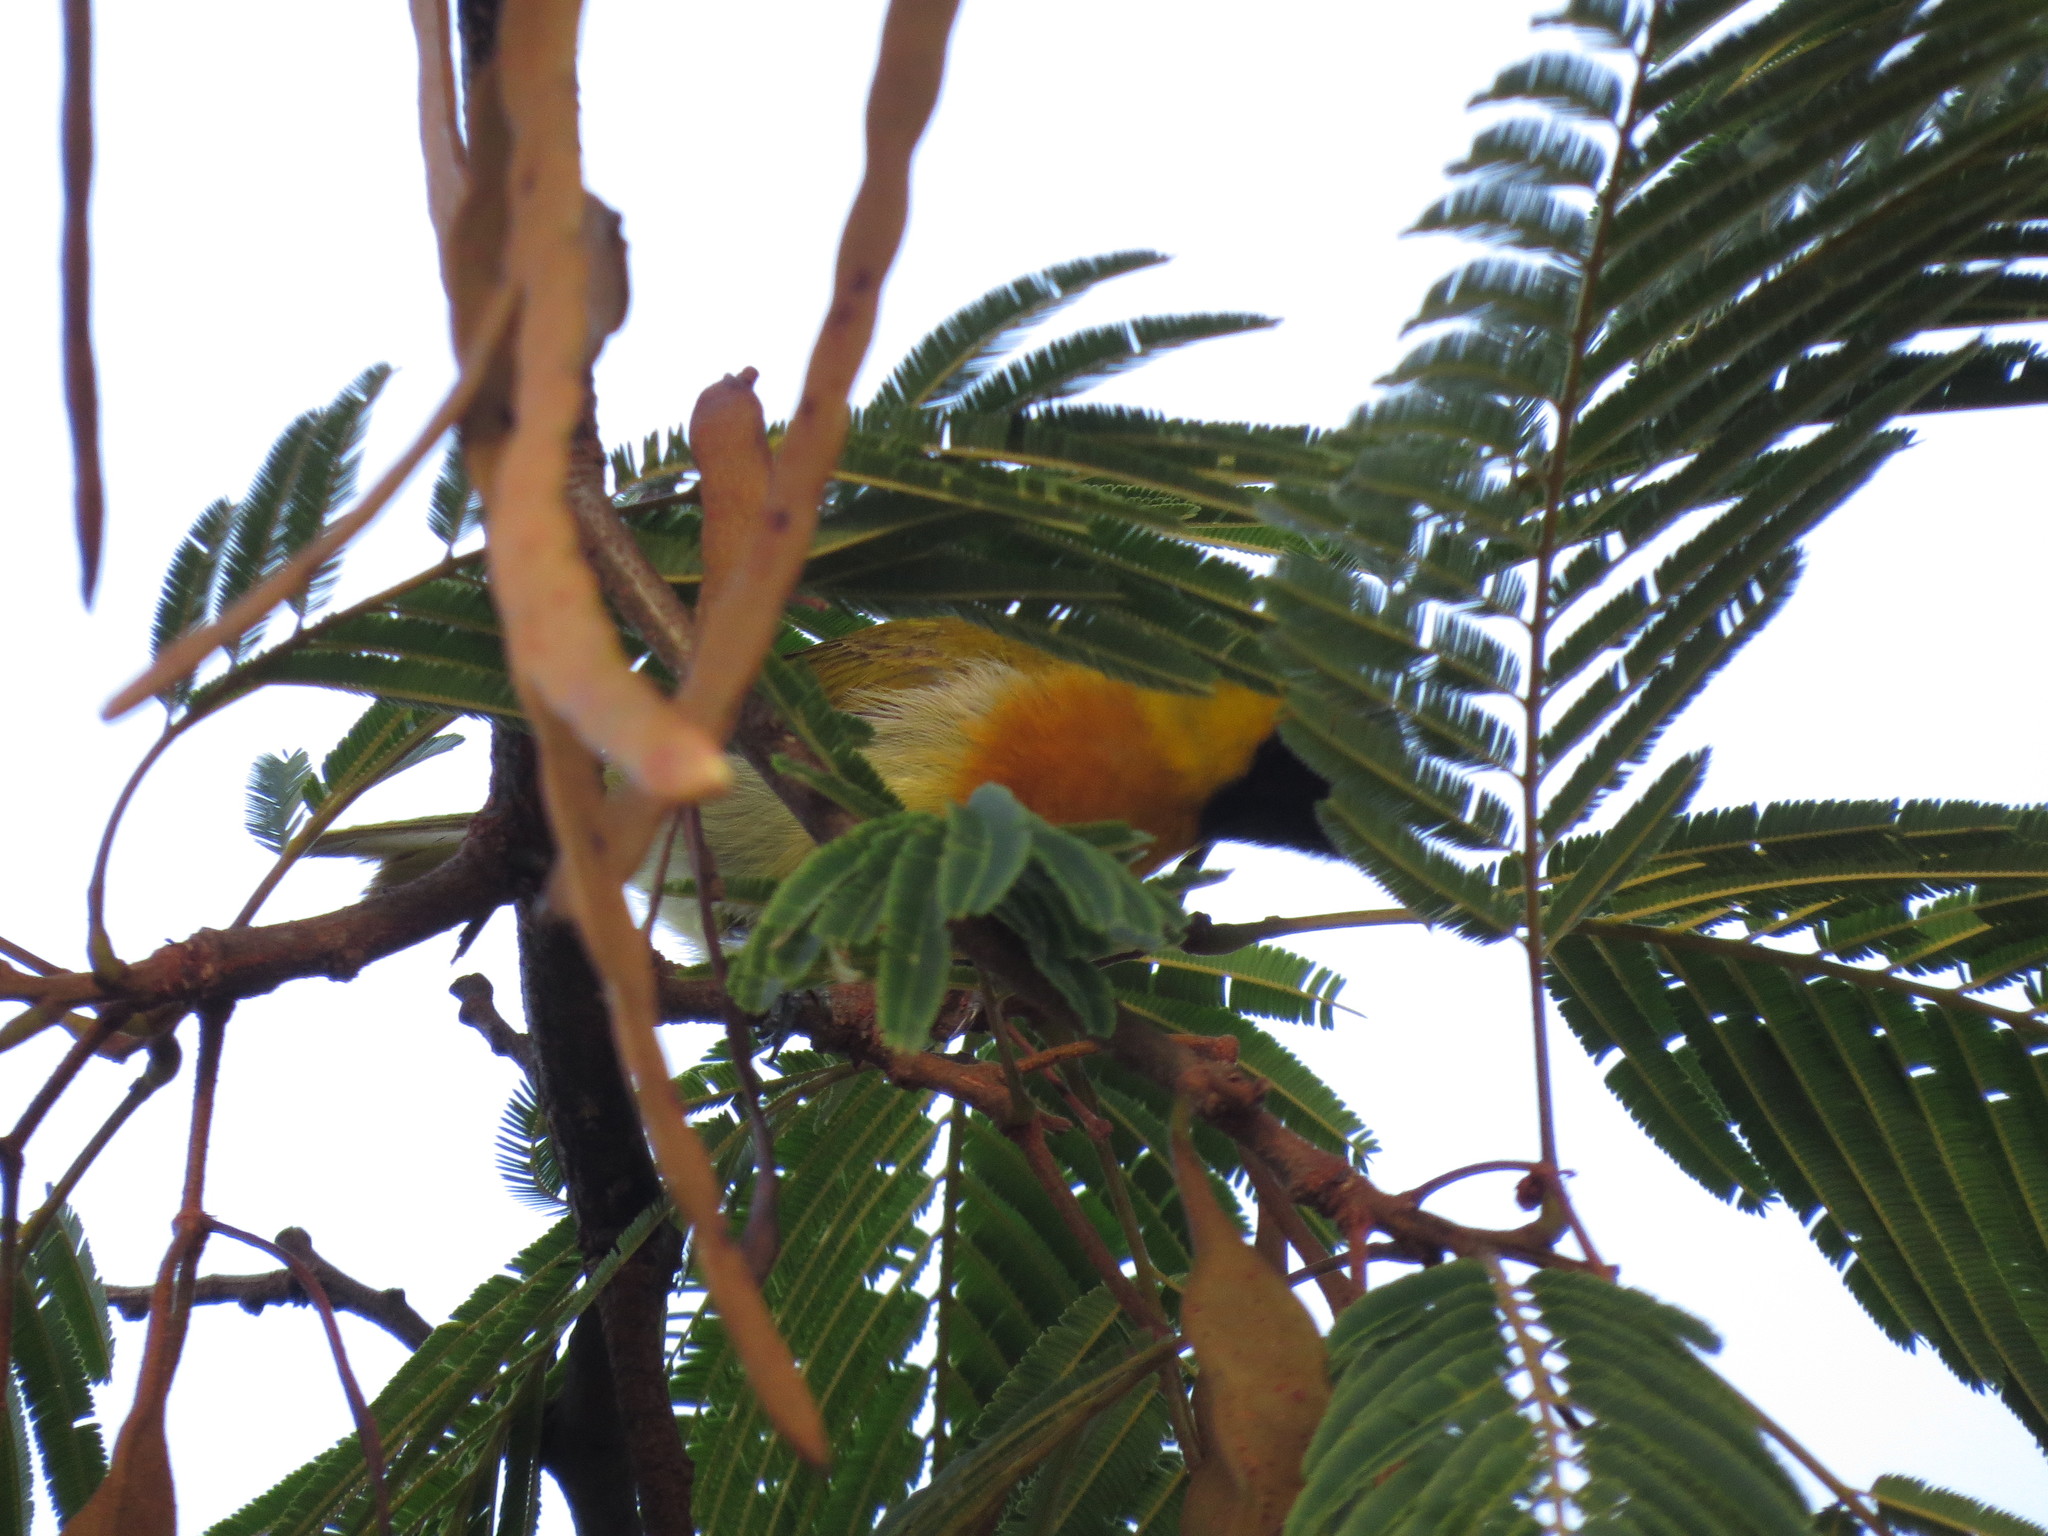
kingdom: Animalia
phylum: Chordata
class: Aves
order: Passeriformes
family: Thraupidae
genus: Hemithraupis
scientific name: Hemithraupis guira
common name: Guira tanager
